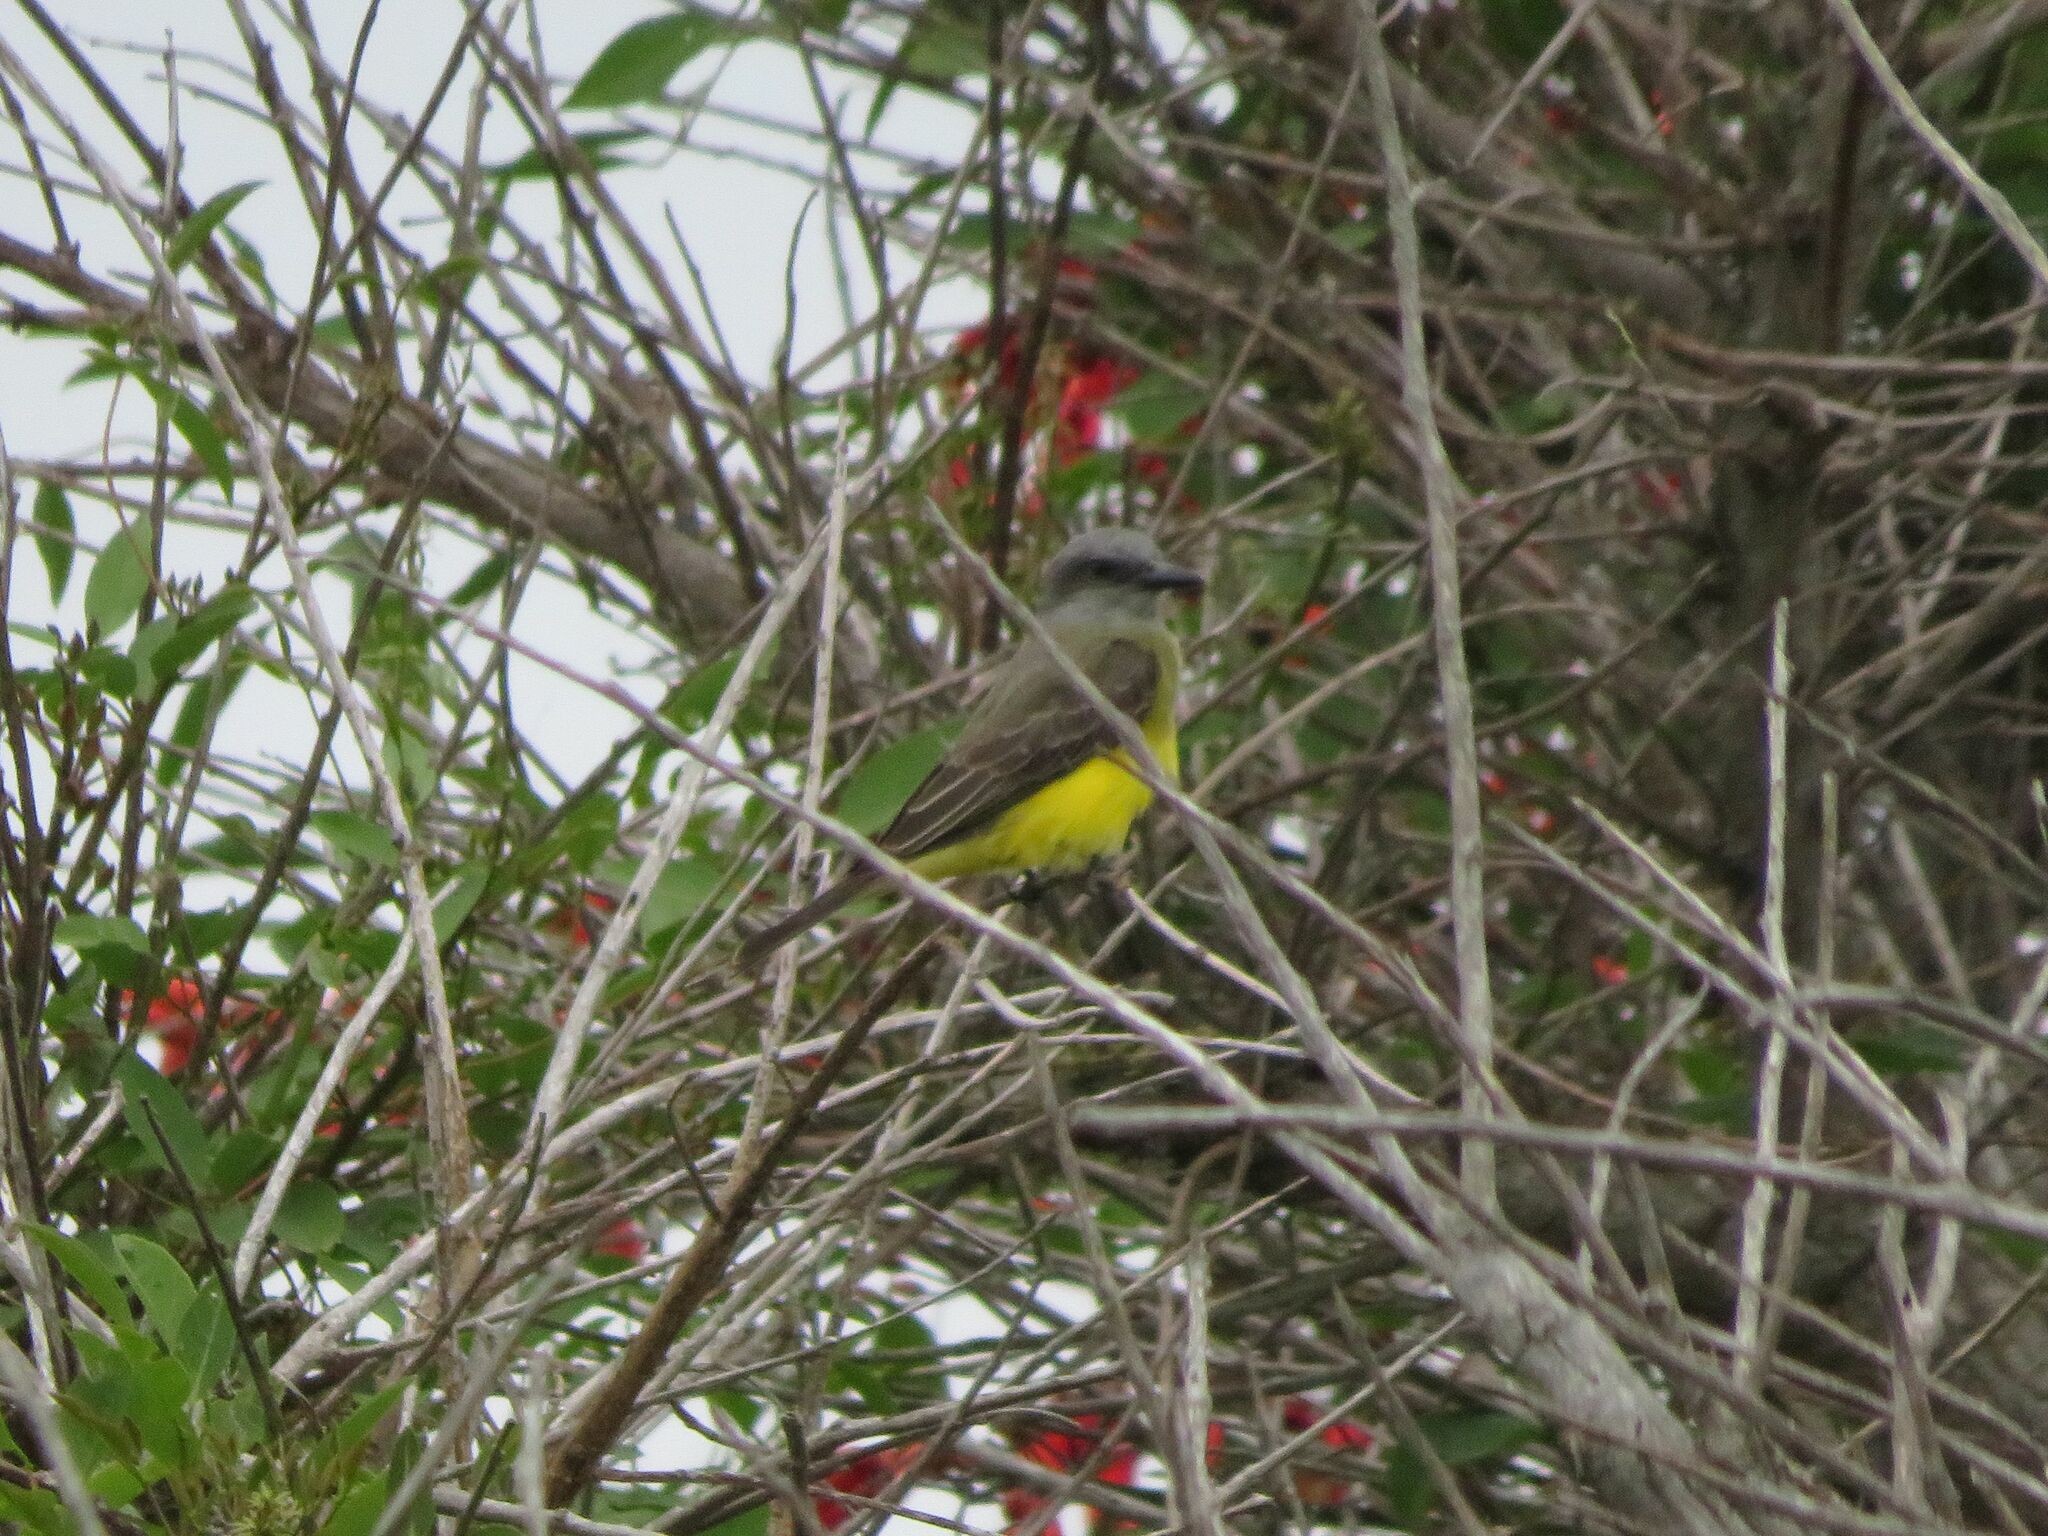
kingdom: Animalia
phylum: Chordata
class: Aves
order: Passeriformes
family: Tyrannidae
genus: Tyrannus
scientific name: Tyrannus melancholicus
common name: Tropical kingbird
